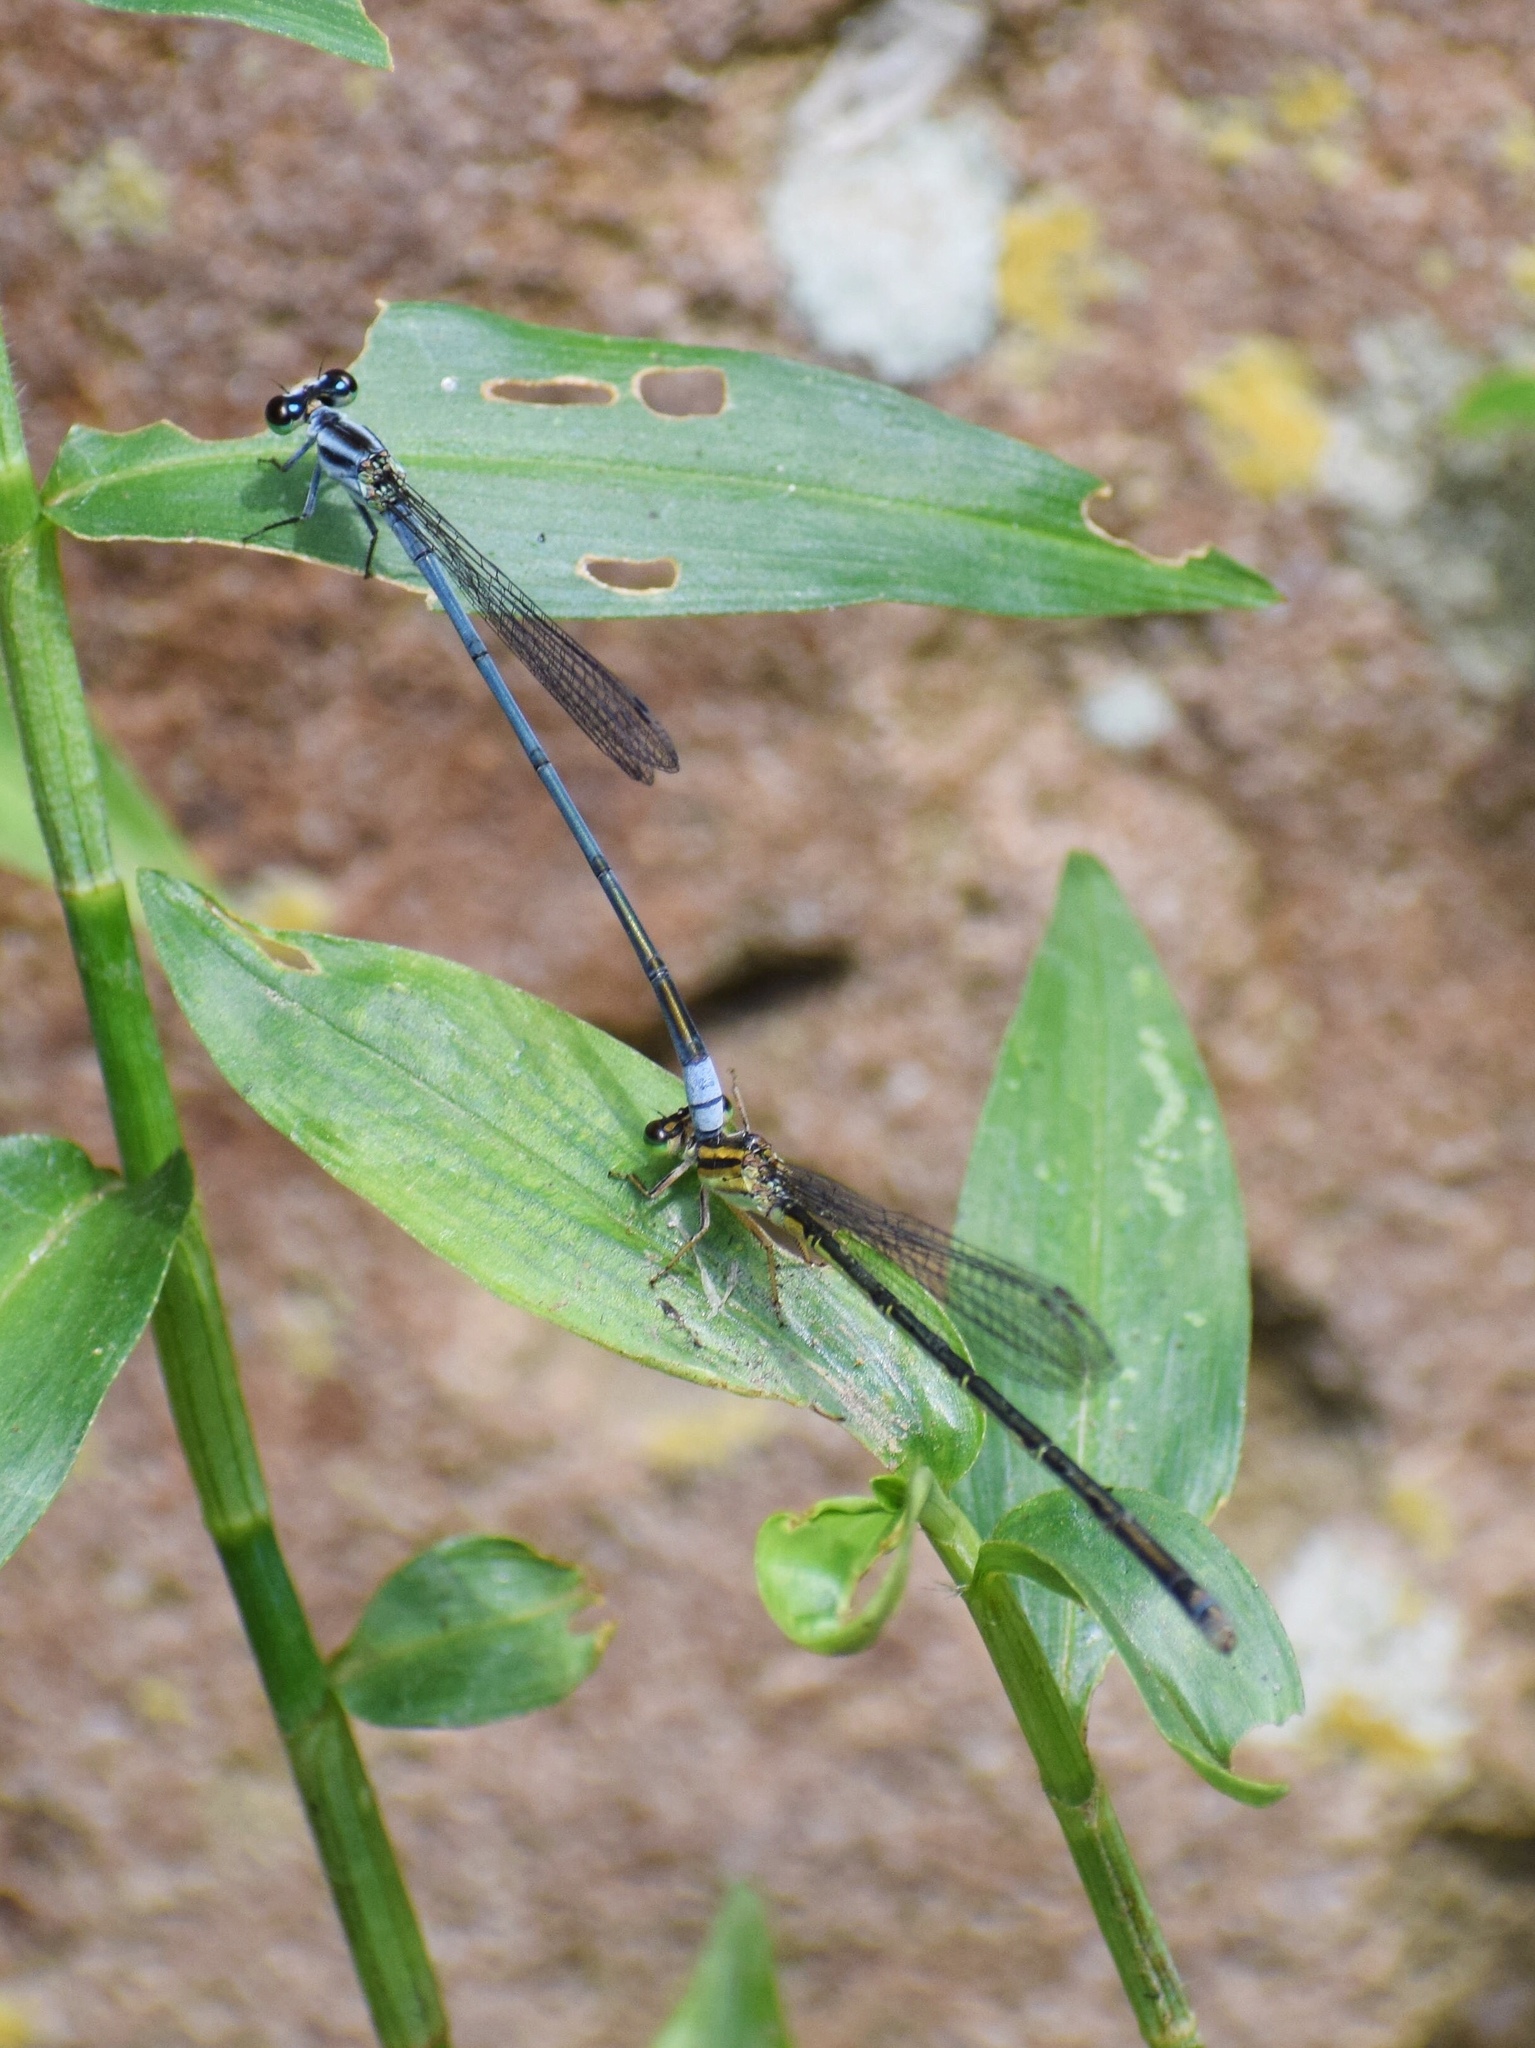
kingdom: Animalia
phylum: Arthropoda
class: Insecta
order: Odonata
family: Coenagrionidae
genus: Pseudagrion
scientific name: Pseudagrion kersteni
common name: Powder-faced sprite
